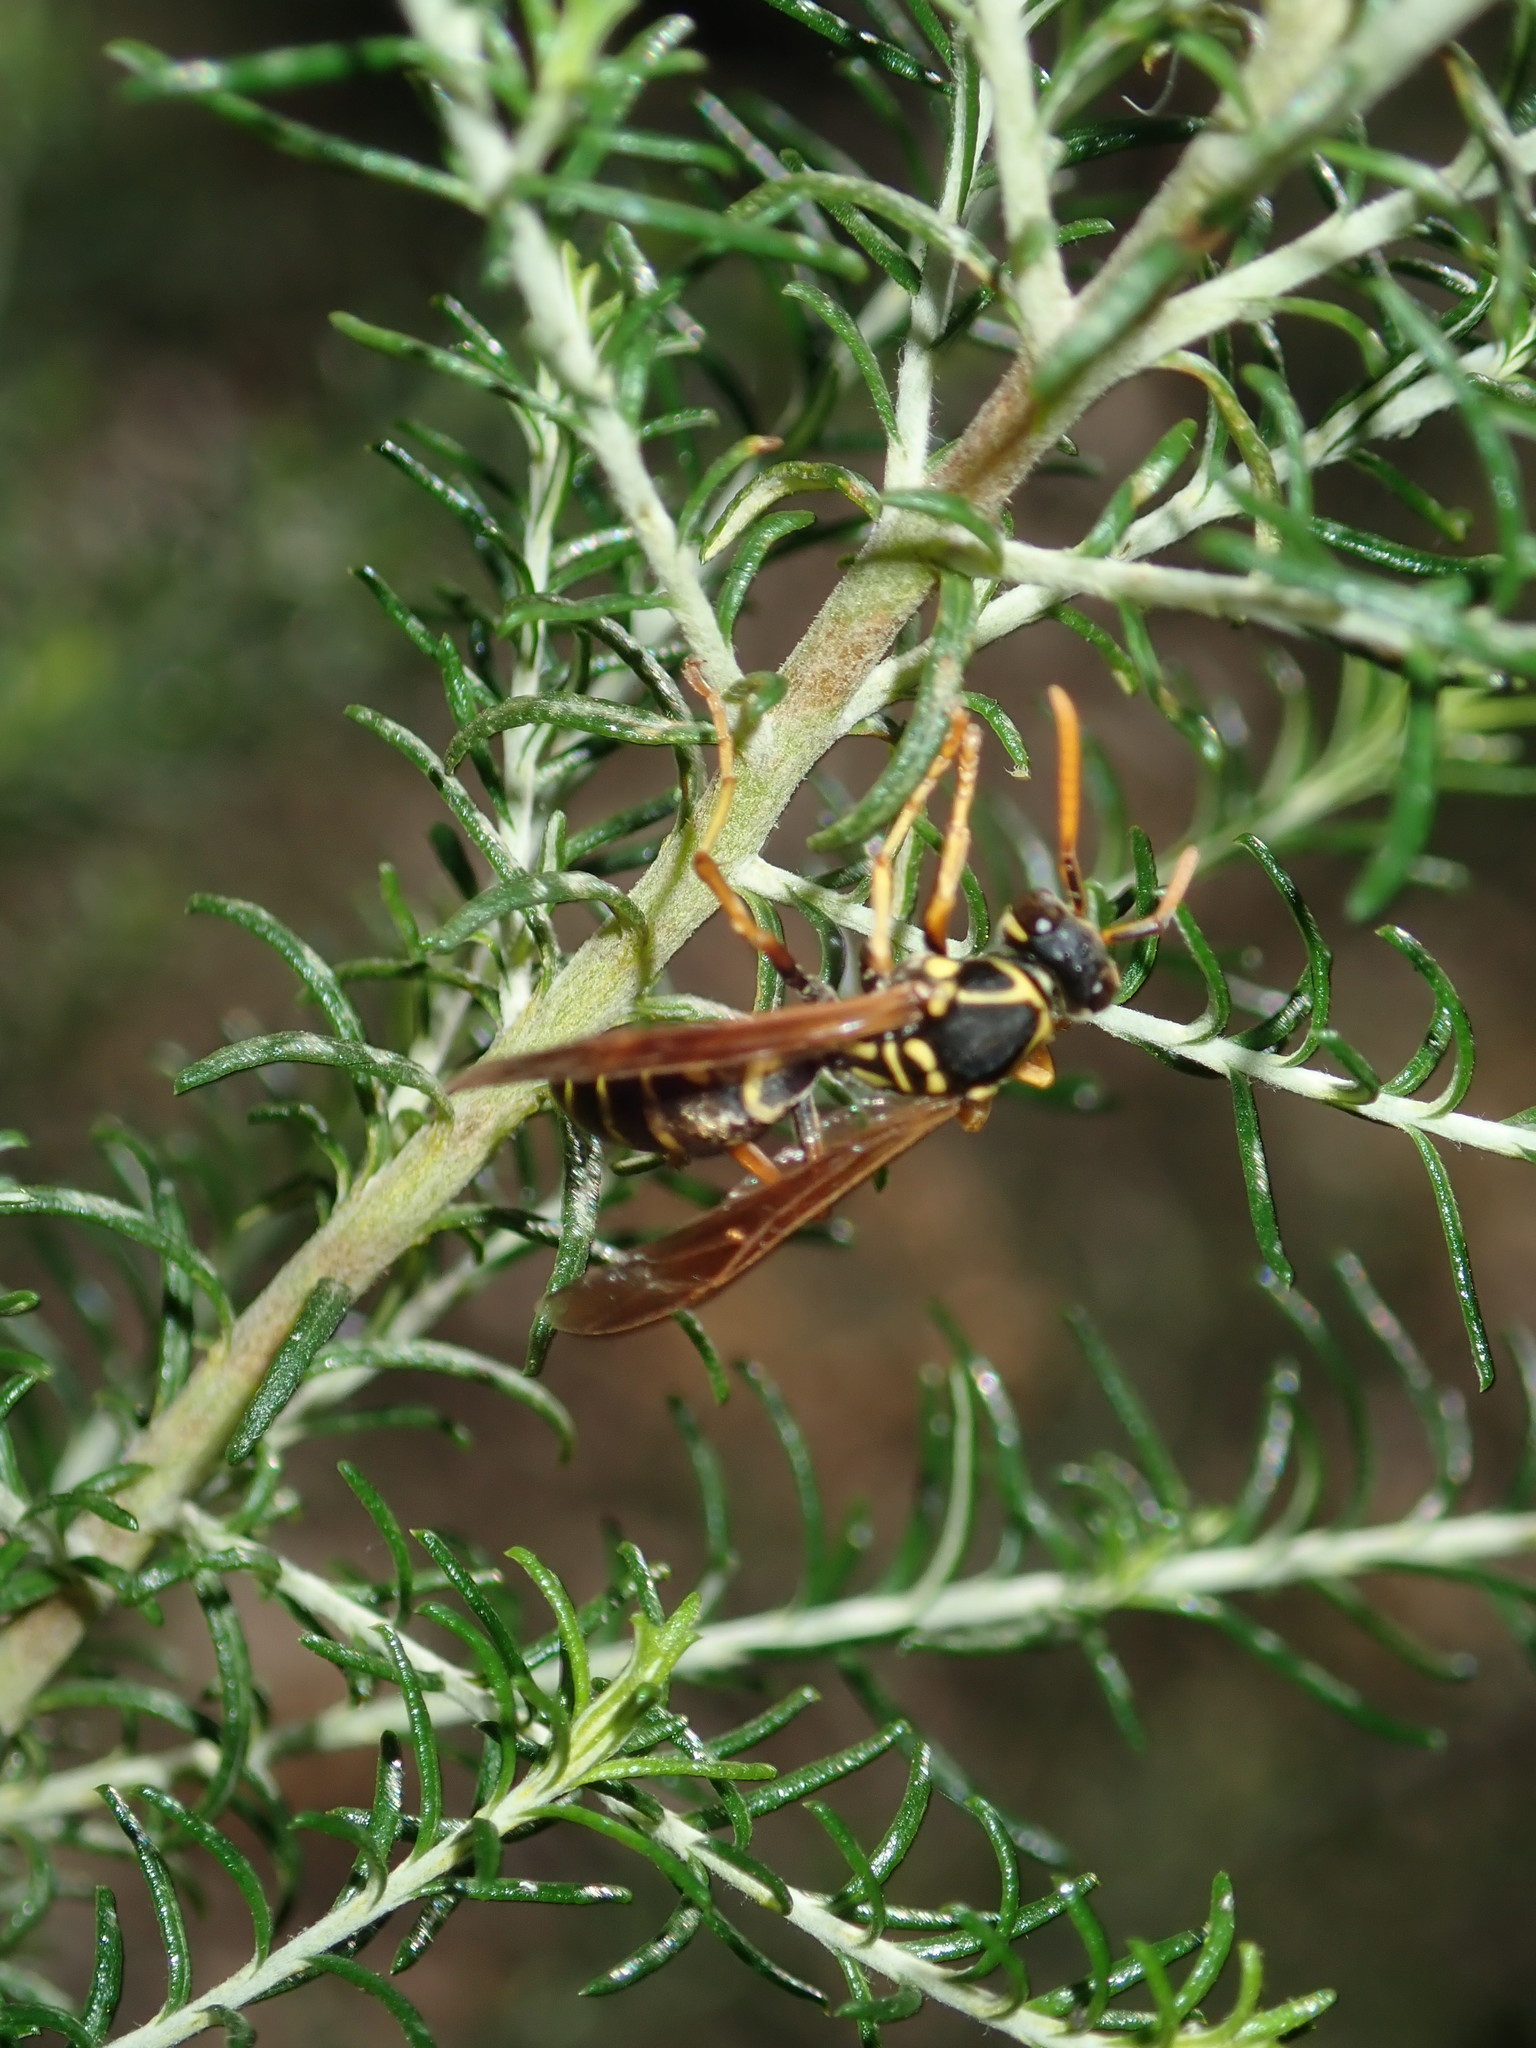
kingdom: Animalia
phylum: Arthropoda
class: Insecta
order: Hymenoptera
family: Eumenidae
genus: Polistes
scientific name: Polistes chinensis
